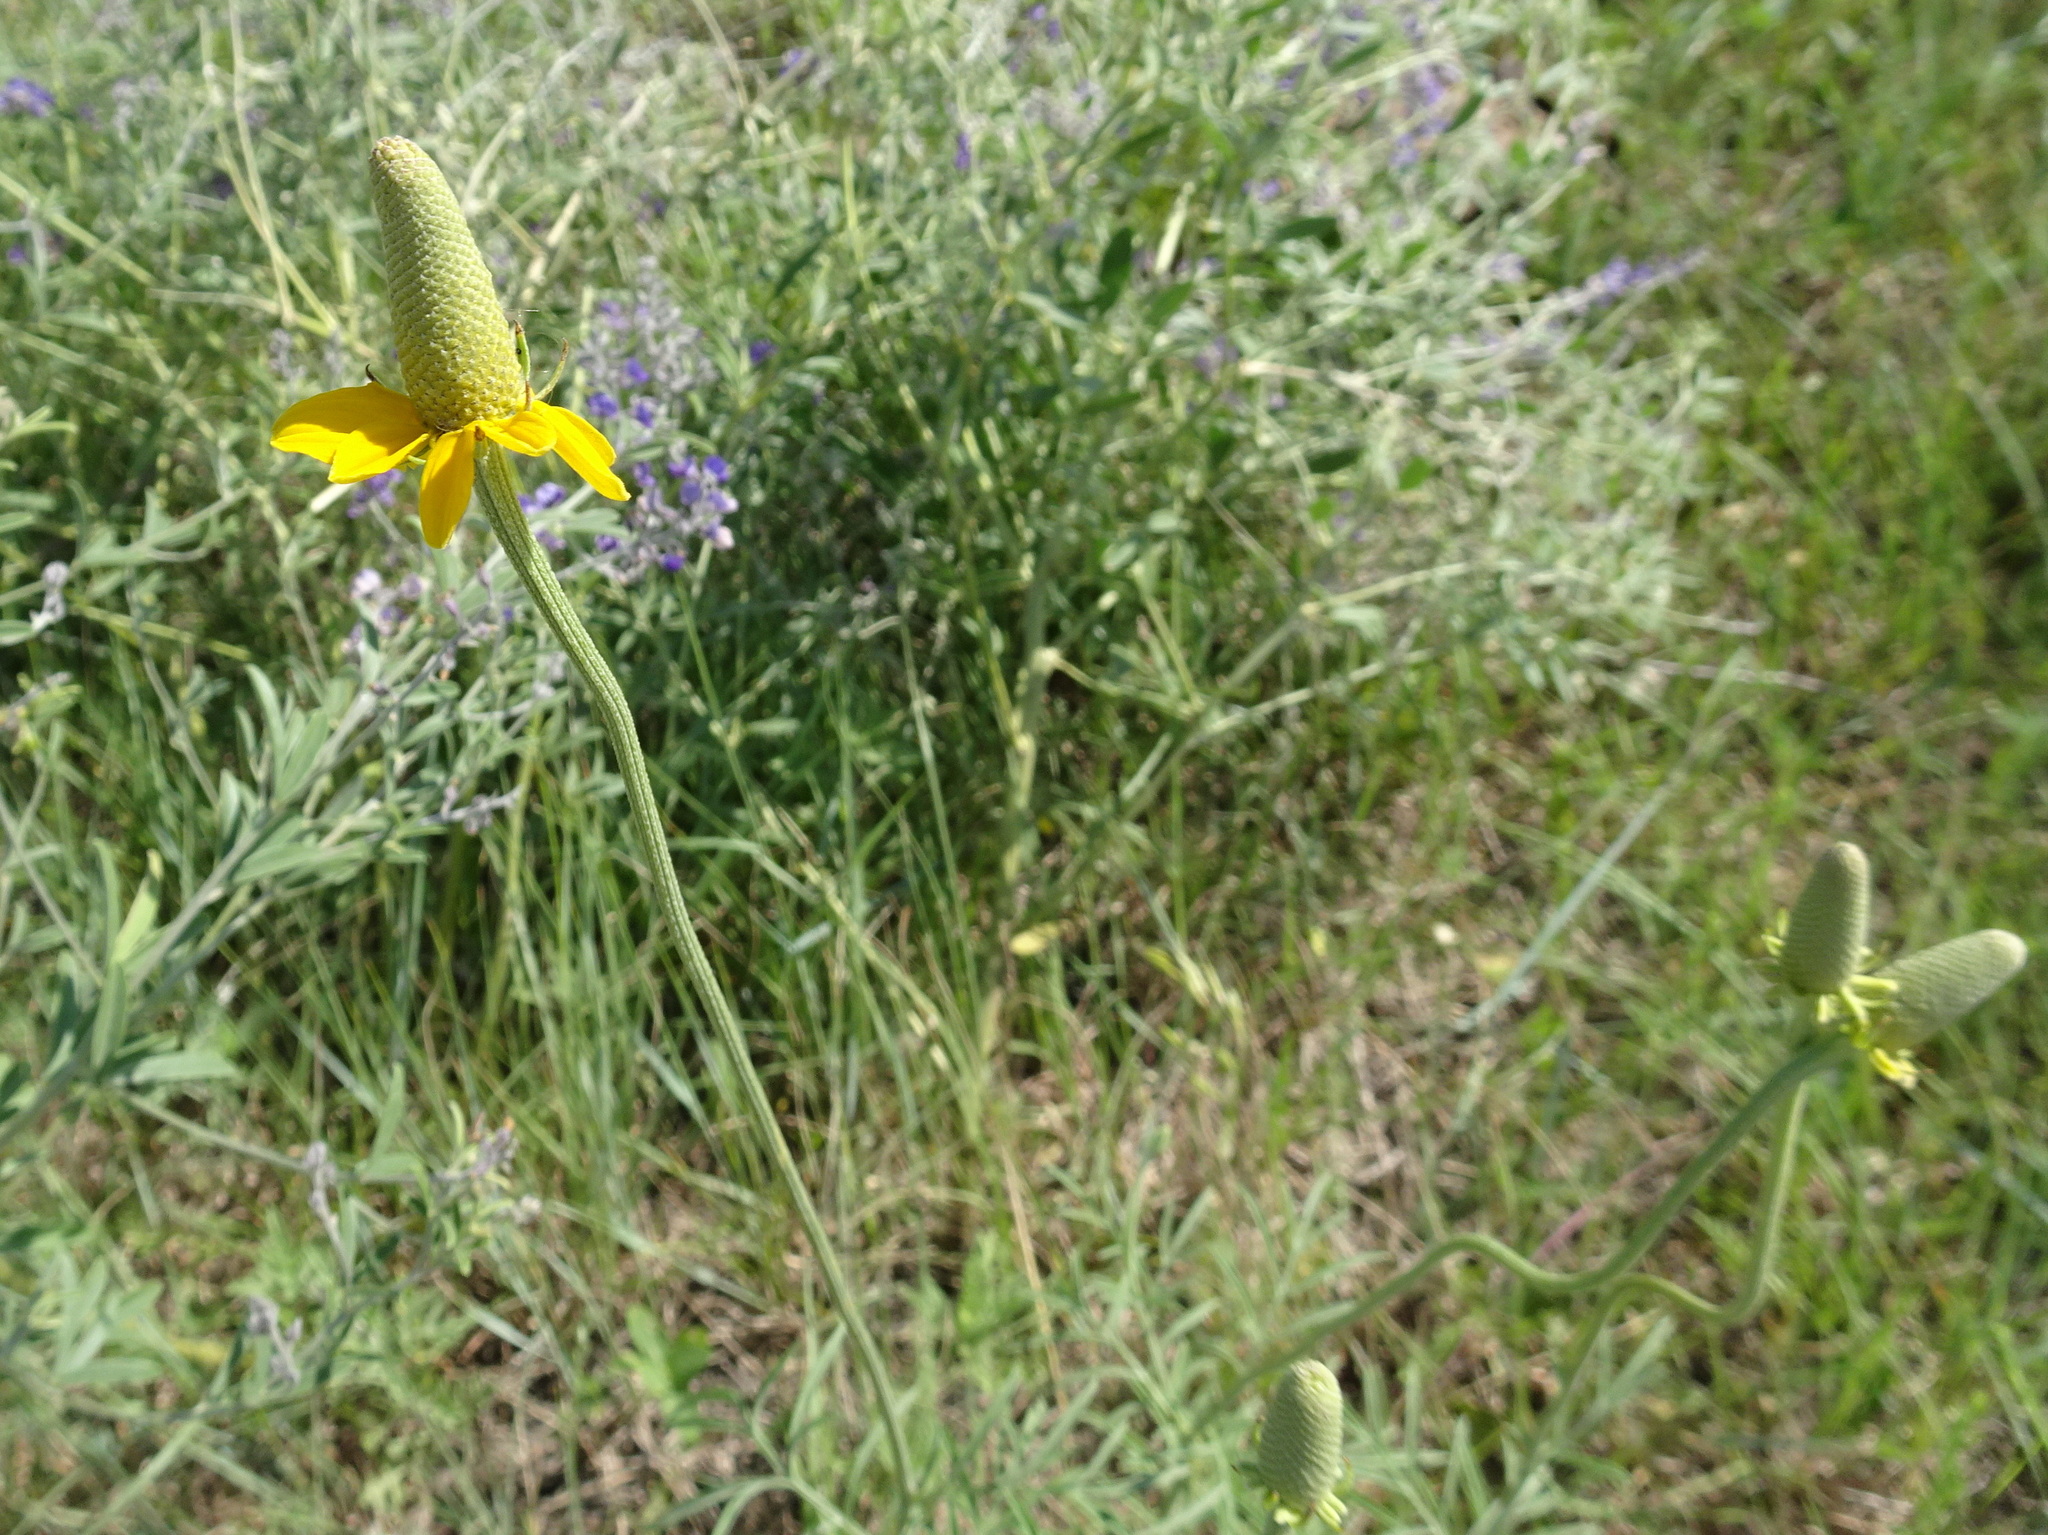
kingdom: Plantae
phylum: Tracheophyta
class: Magnoliopsida
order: Asterales
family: Asteraceae
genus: Ratibida
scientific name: Ratibida columnifera
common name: Prairie coneflower
